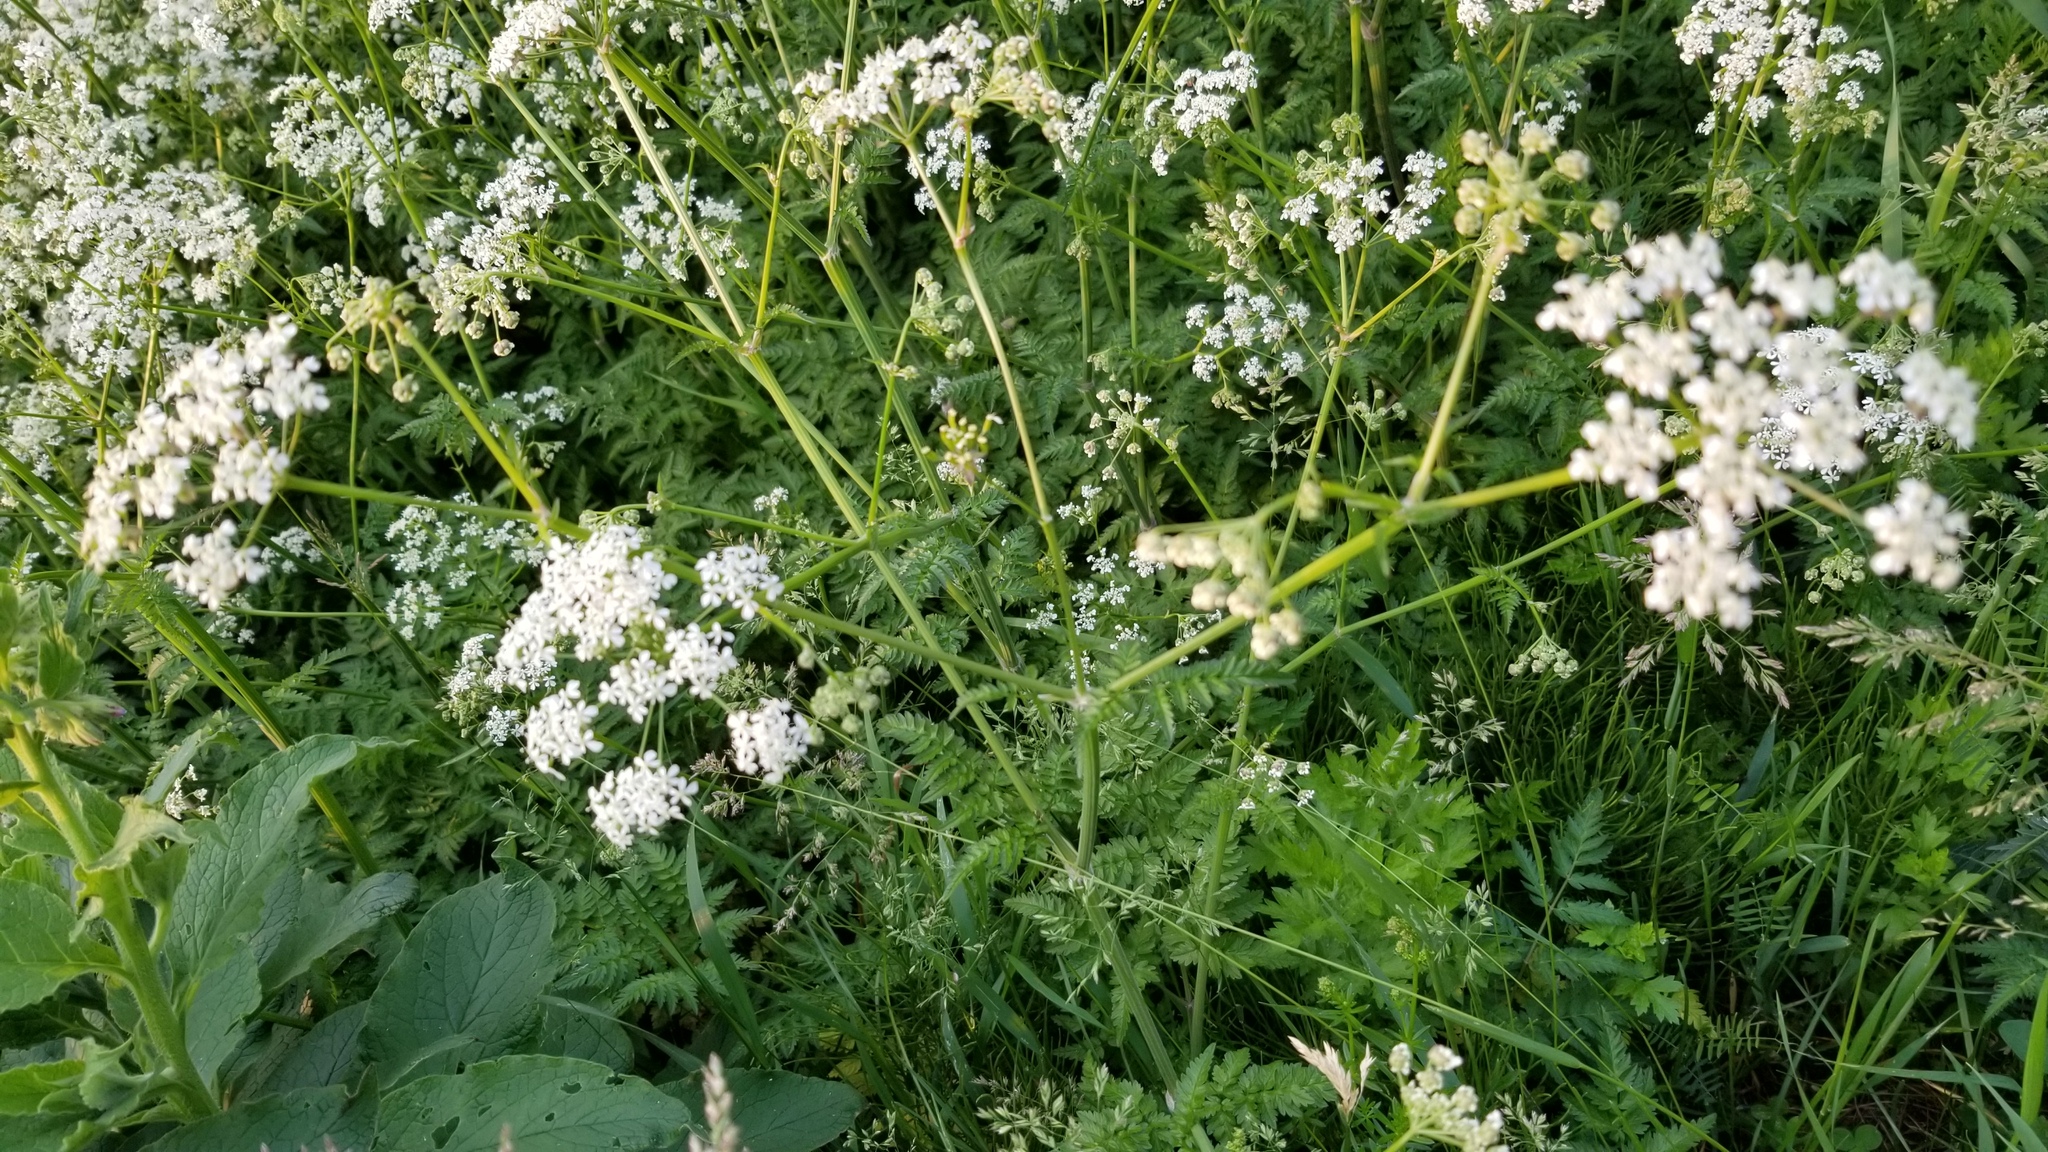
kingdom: Plantae
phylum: Tracheophyta
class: Magnoliopsida
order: Apiales
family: Apiaceae
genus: Anthriscus
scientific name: Anthriscus sylvestris
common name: Cow parsley
